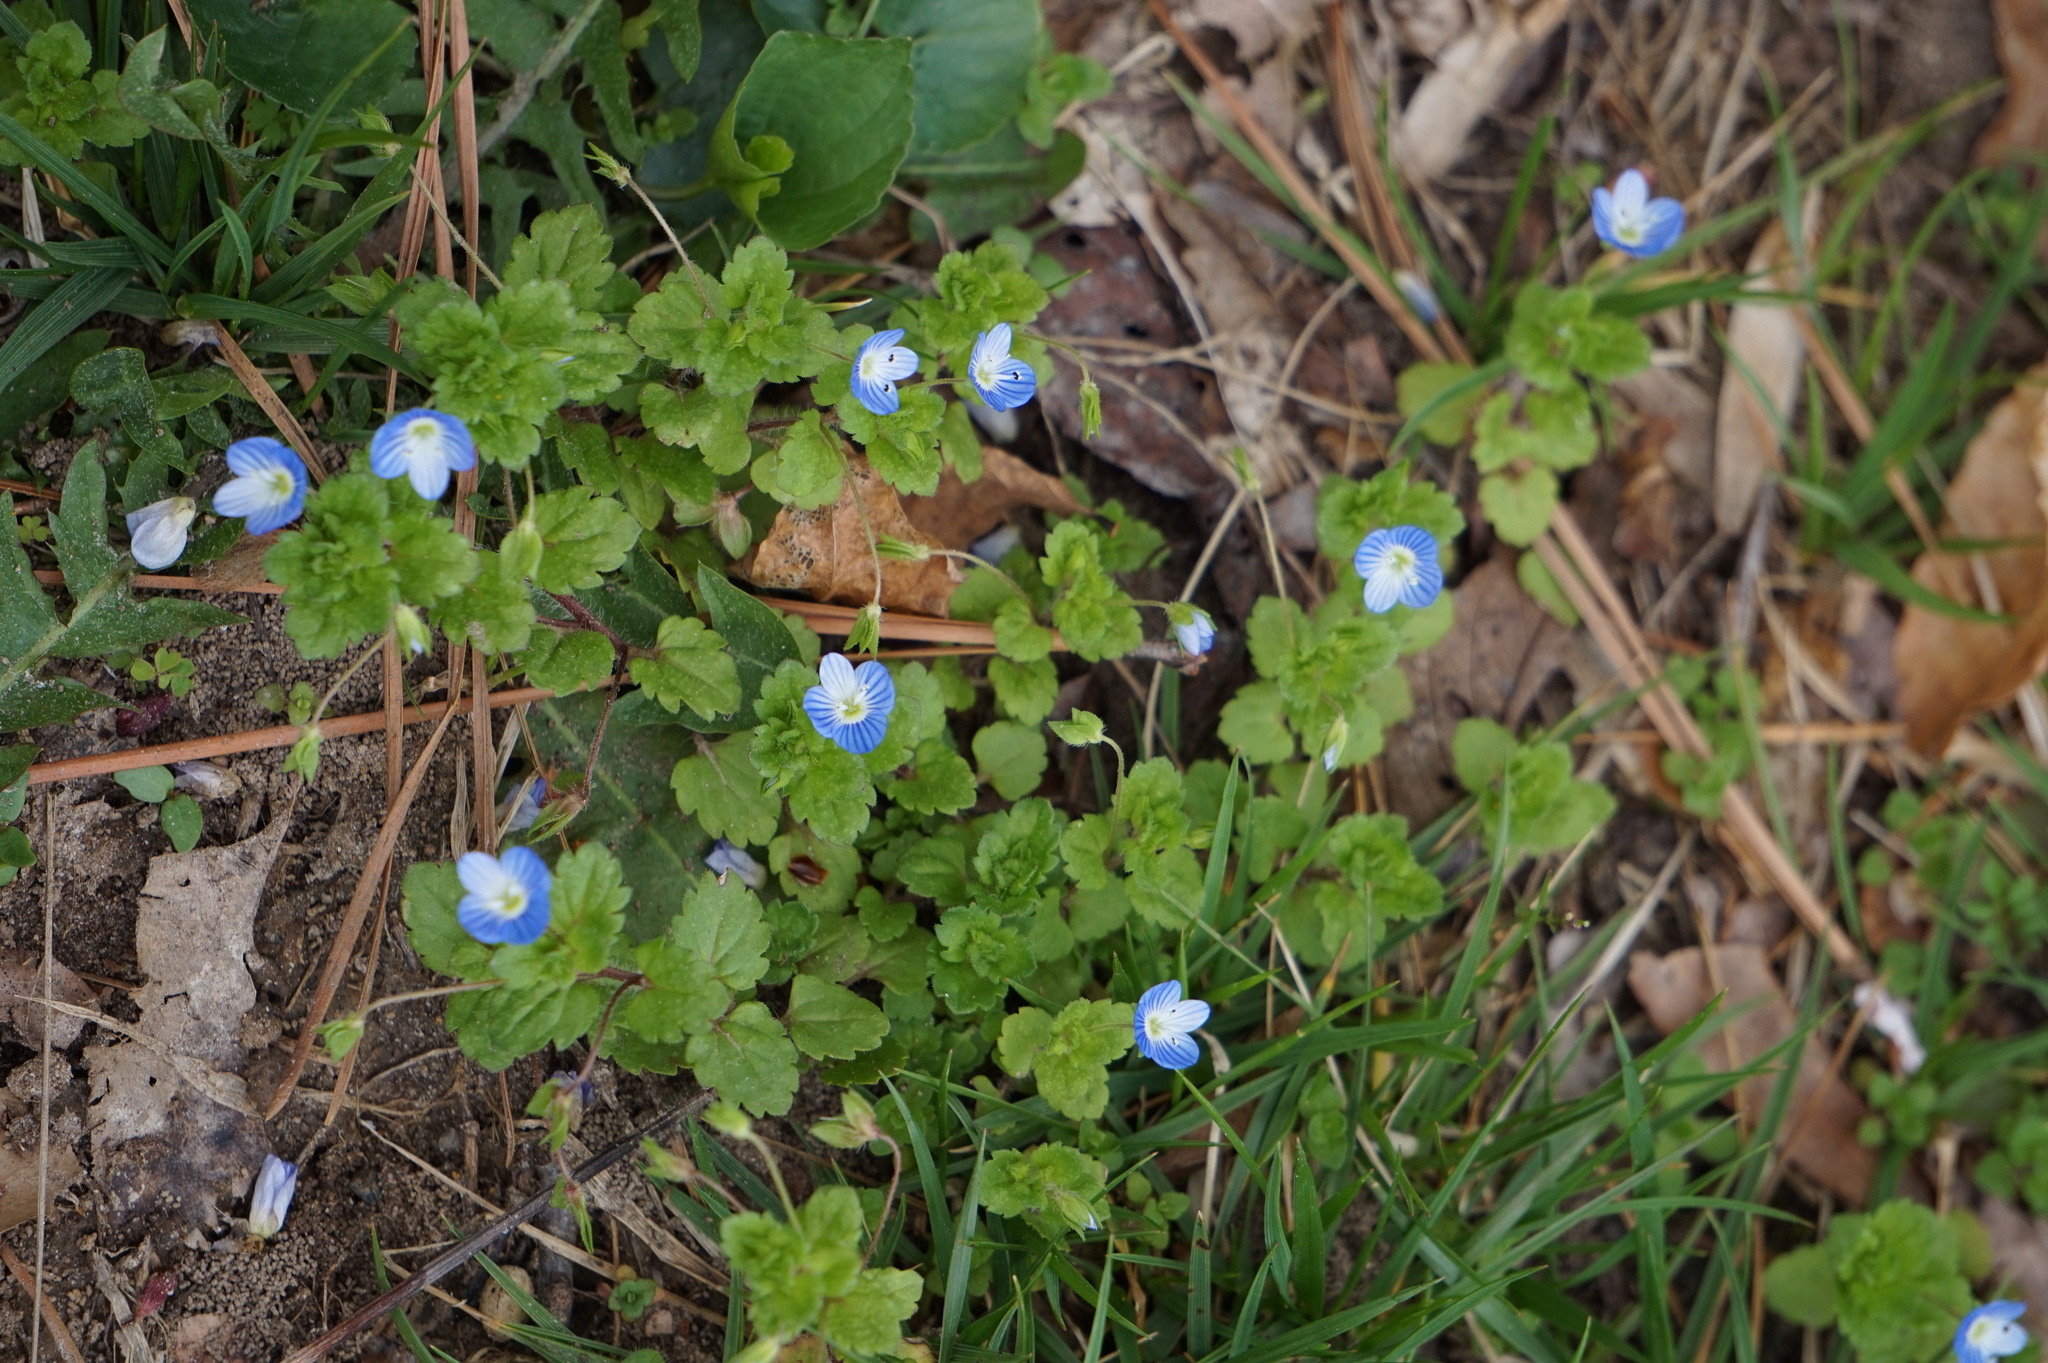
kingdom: Plantae
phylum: Tracheophyta
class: Magnoliopsida
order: Lamiales
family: Plantaginaceae
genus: Veronica
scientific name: Veronica persica
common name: Common field-speedwell
